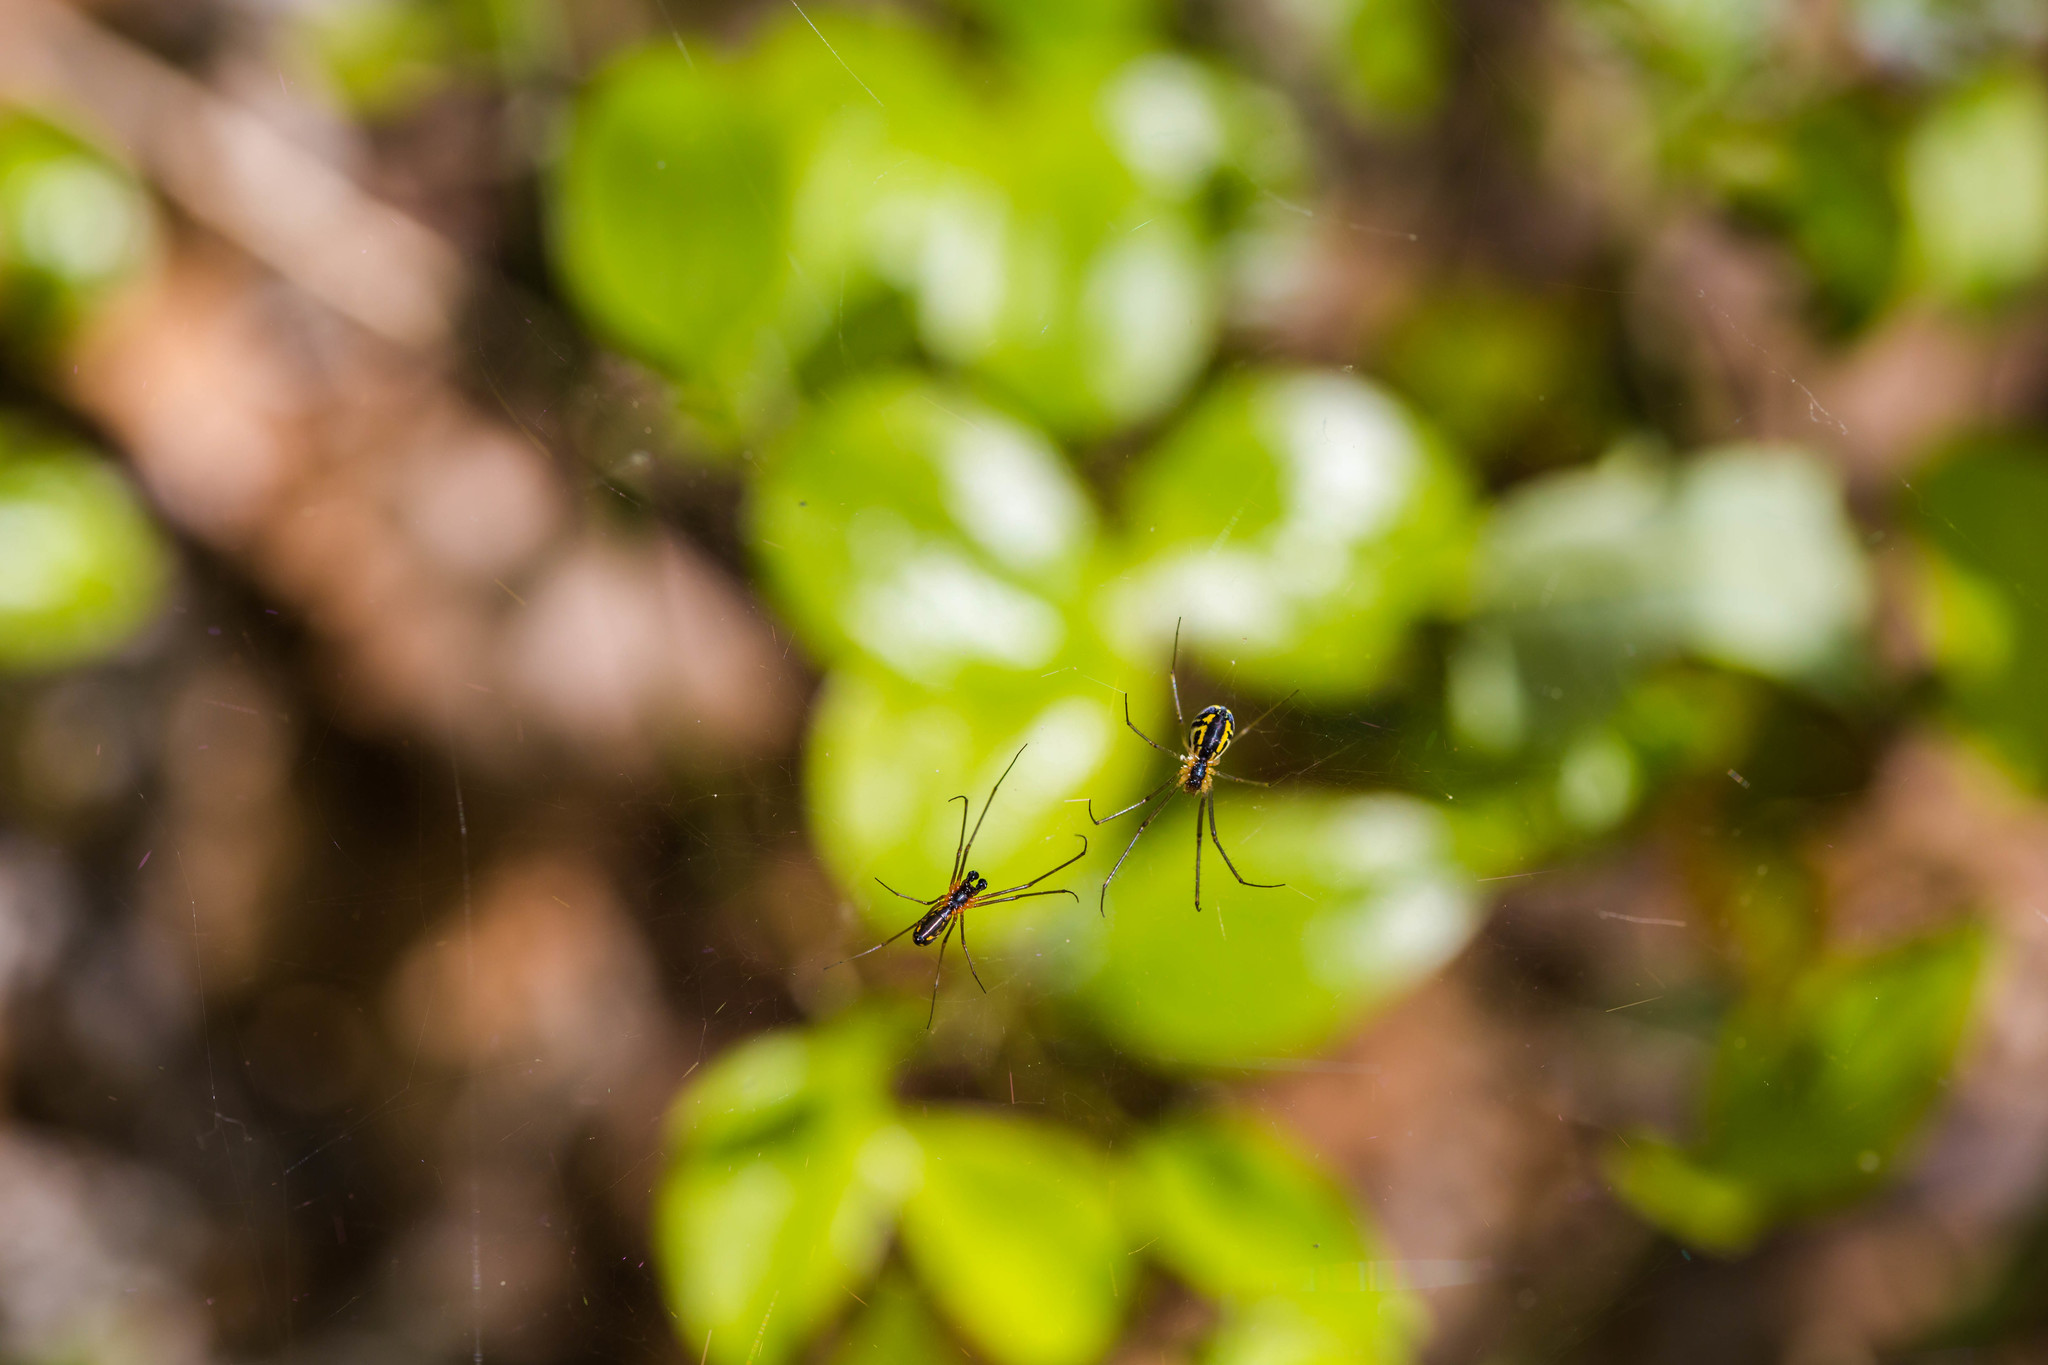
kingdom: Animalia
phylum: Arthropoda
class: Arachnida
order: Araneae
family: Linyphiidae
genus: Neriene
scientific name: Neriene radiata
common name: Filmy dome spider
